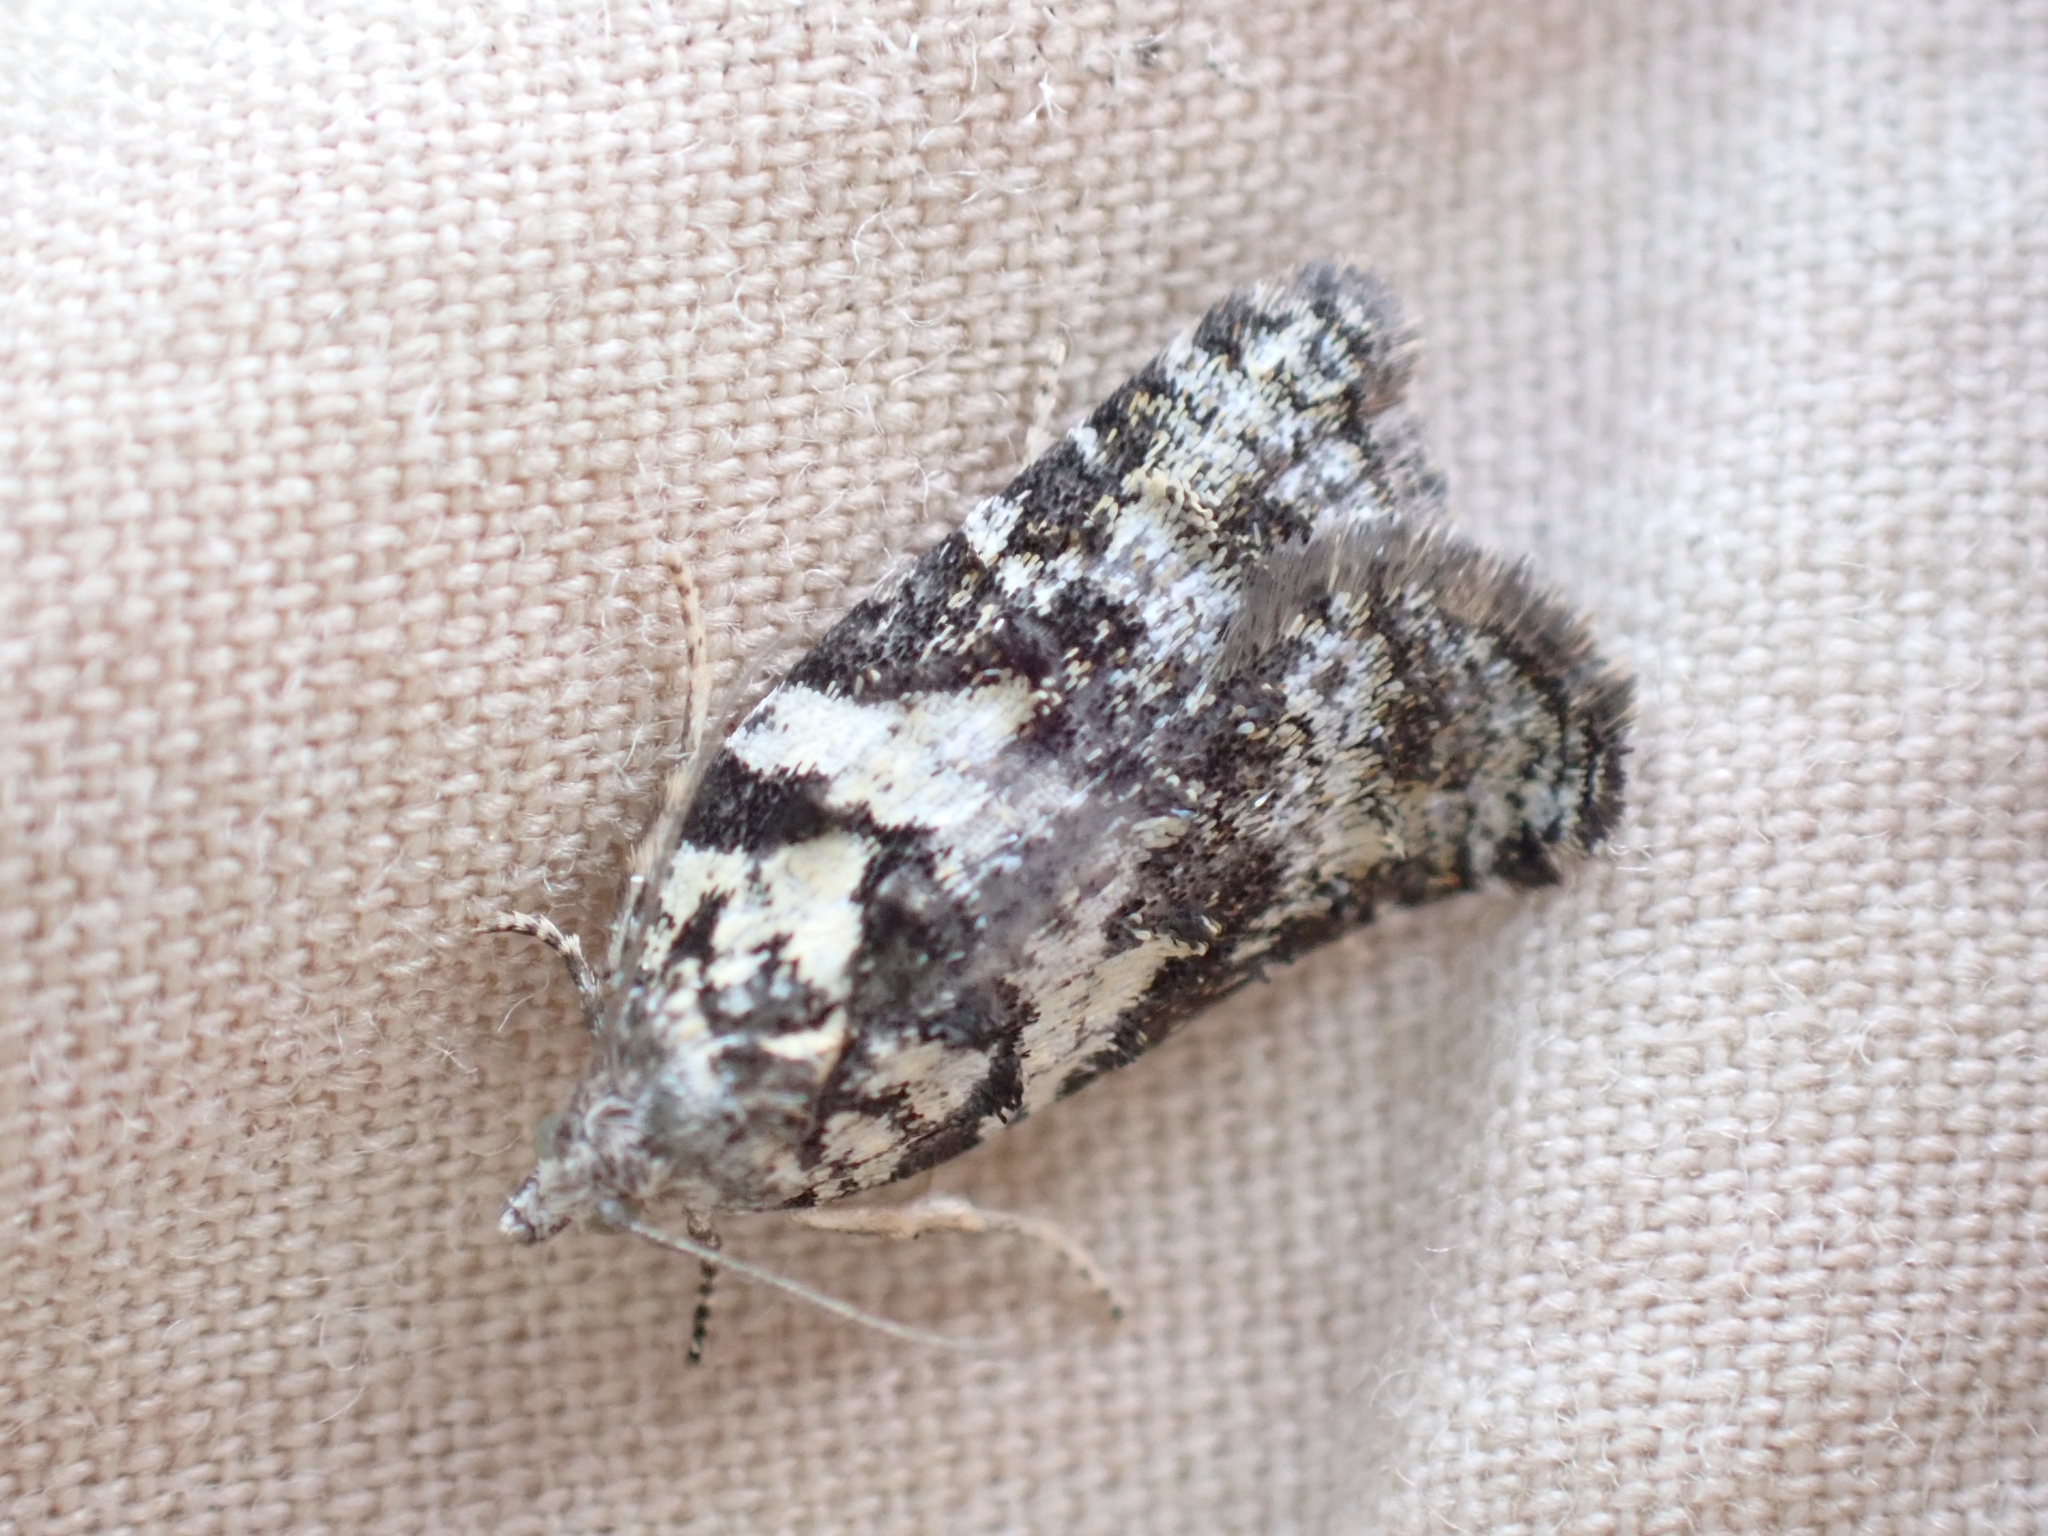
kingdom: Animalia
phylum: Arthropoda
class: Insecta
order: Lepidoptera
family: Tortricidae
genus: Acleris
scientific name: Acleris gloveranus
